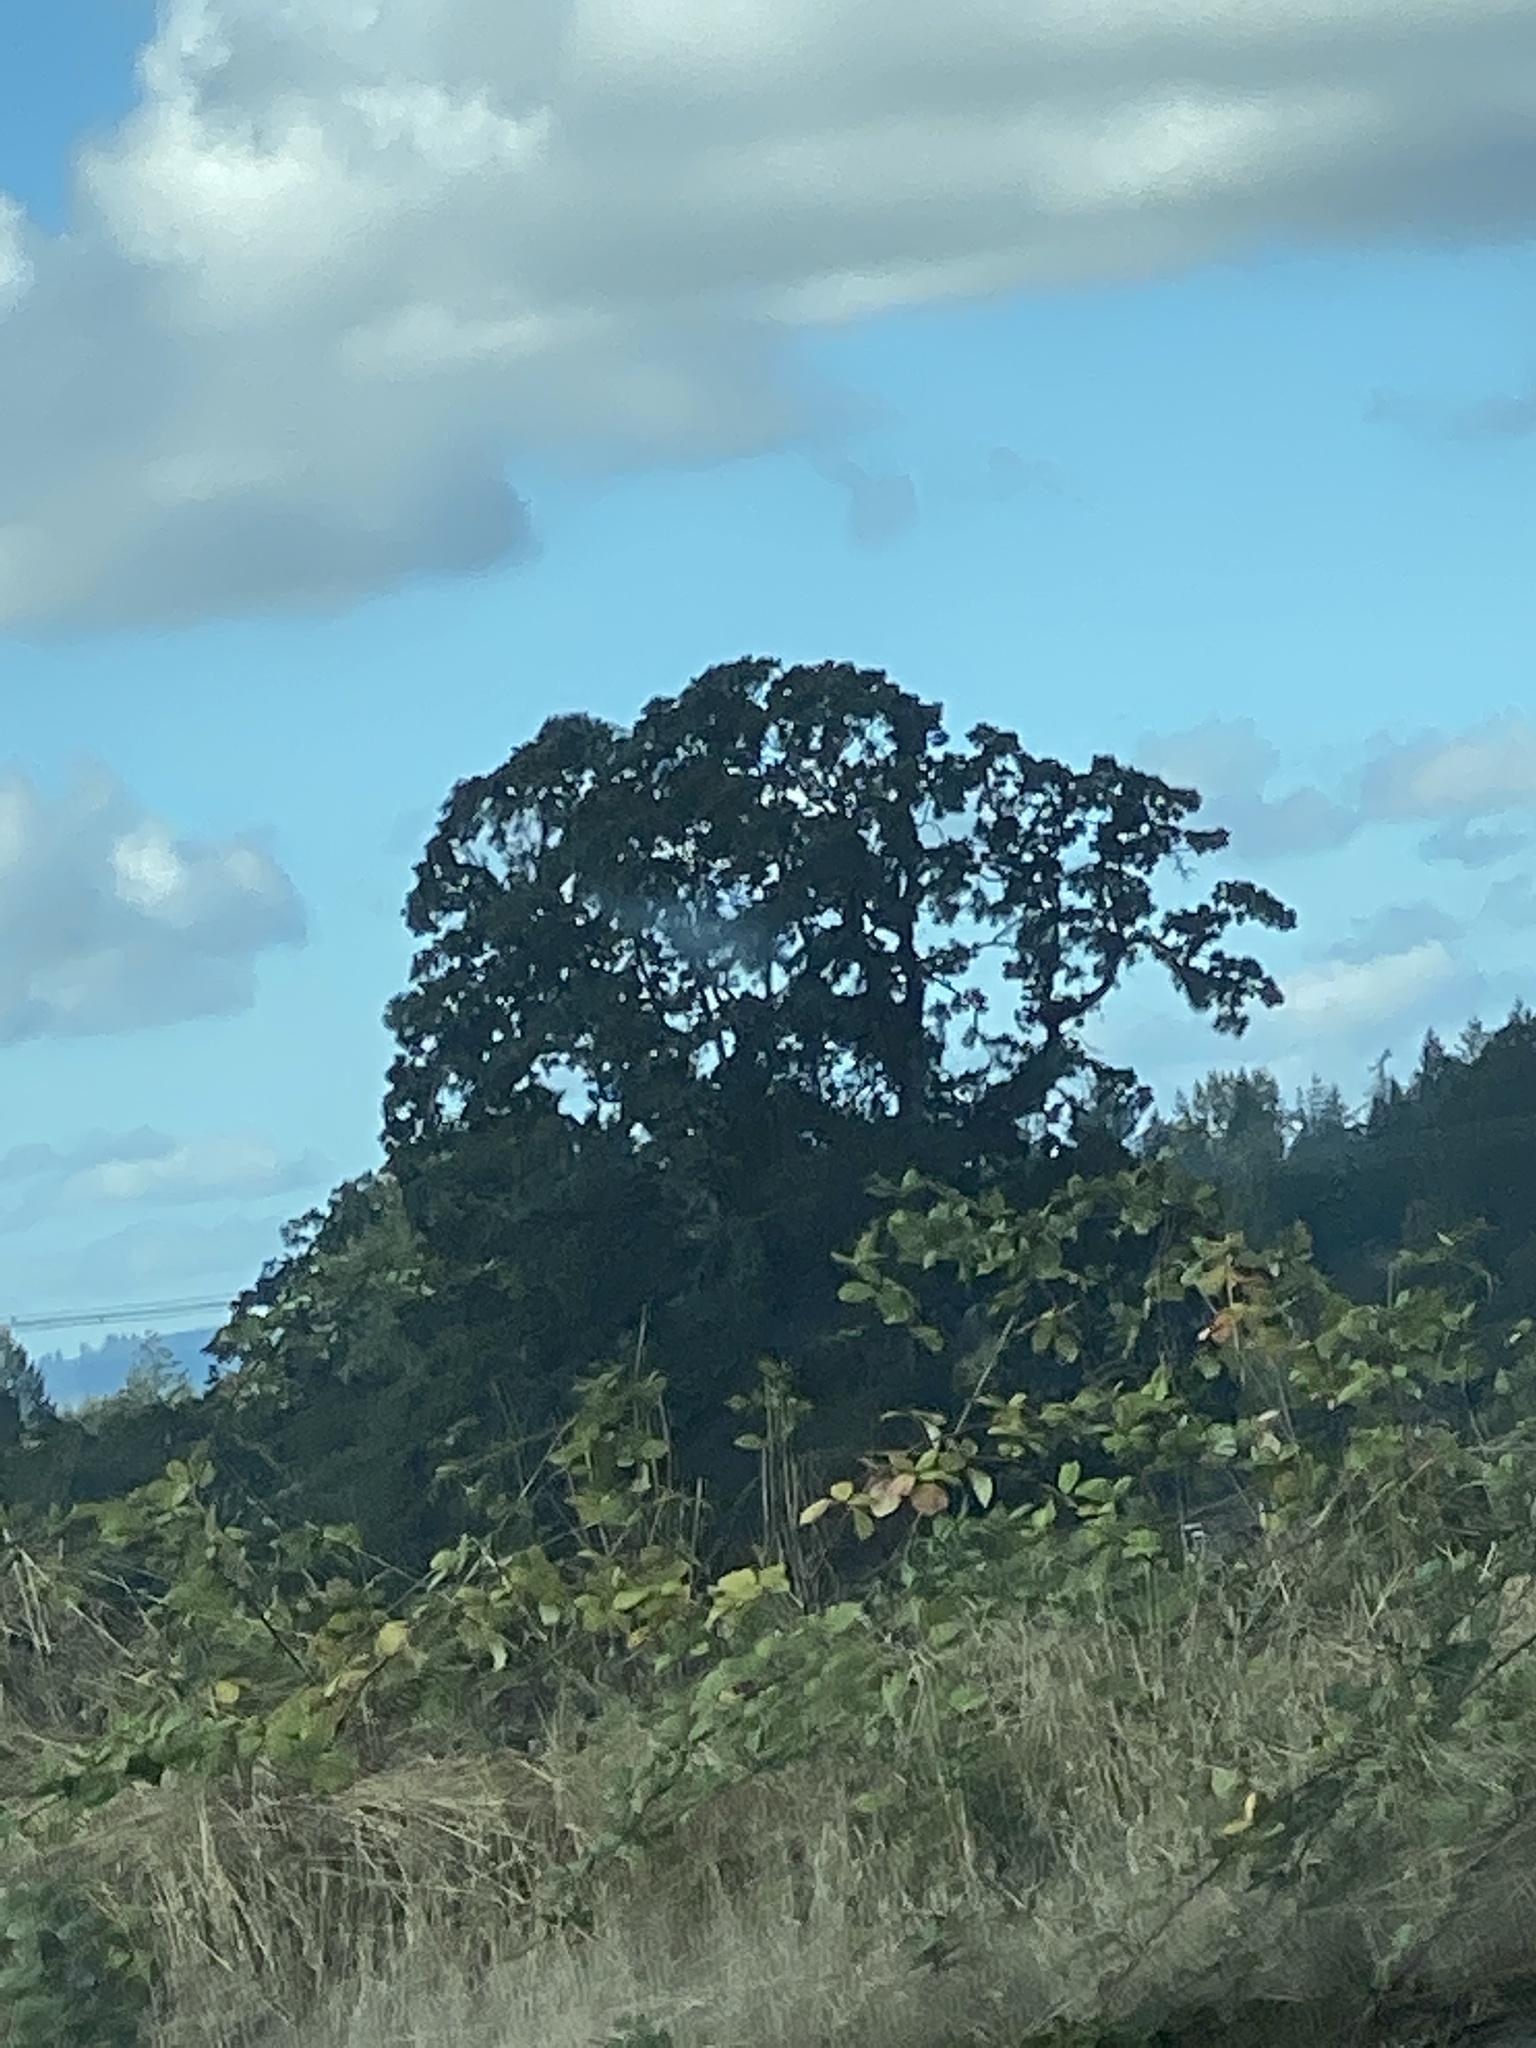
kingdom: Plantae
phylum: Tracheophyta
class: Magnoliopsida
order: Fagales
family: Fagaceae
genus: Quercus
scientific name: Quercus garryana
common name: Garry oak
